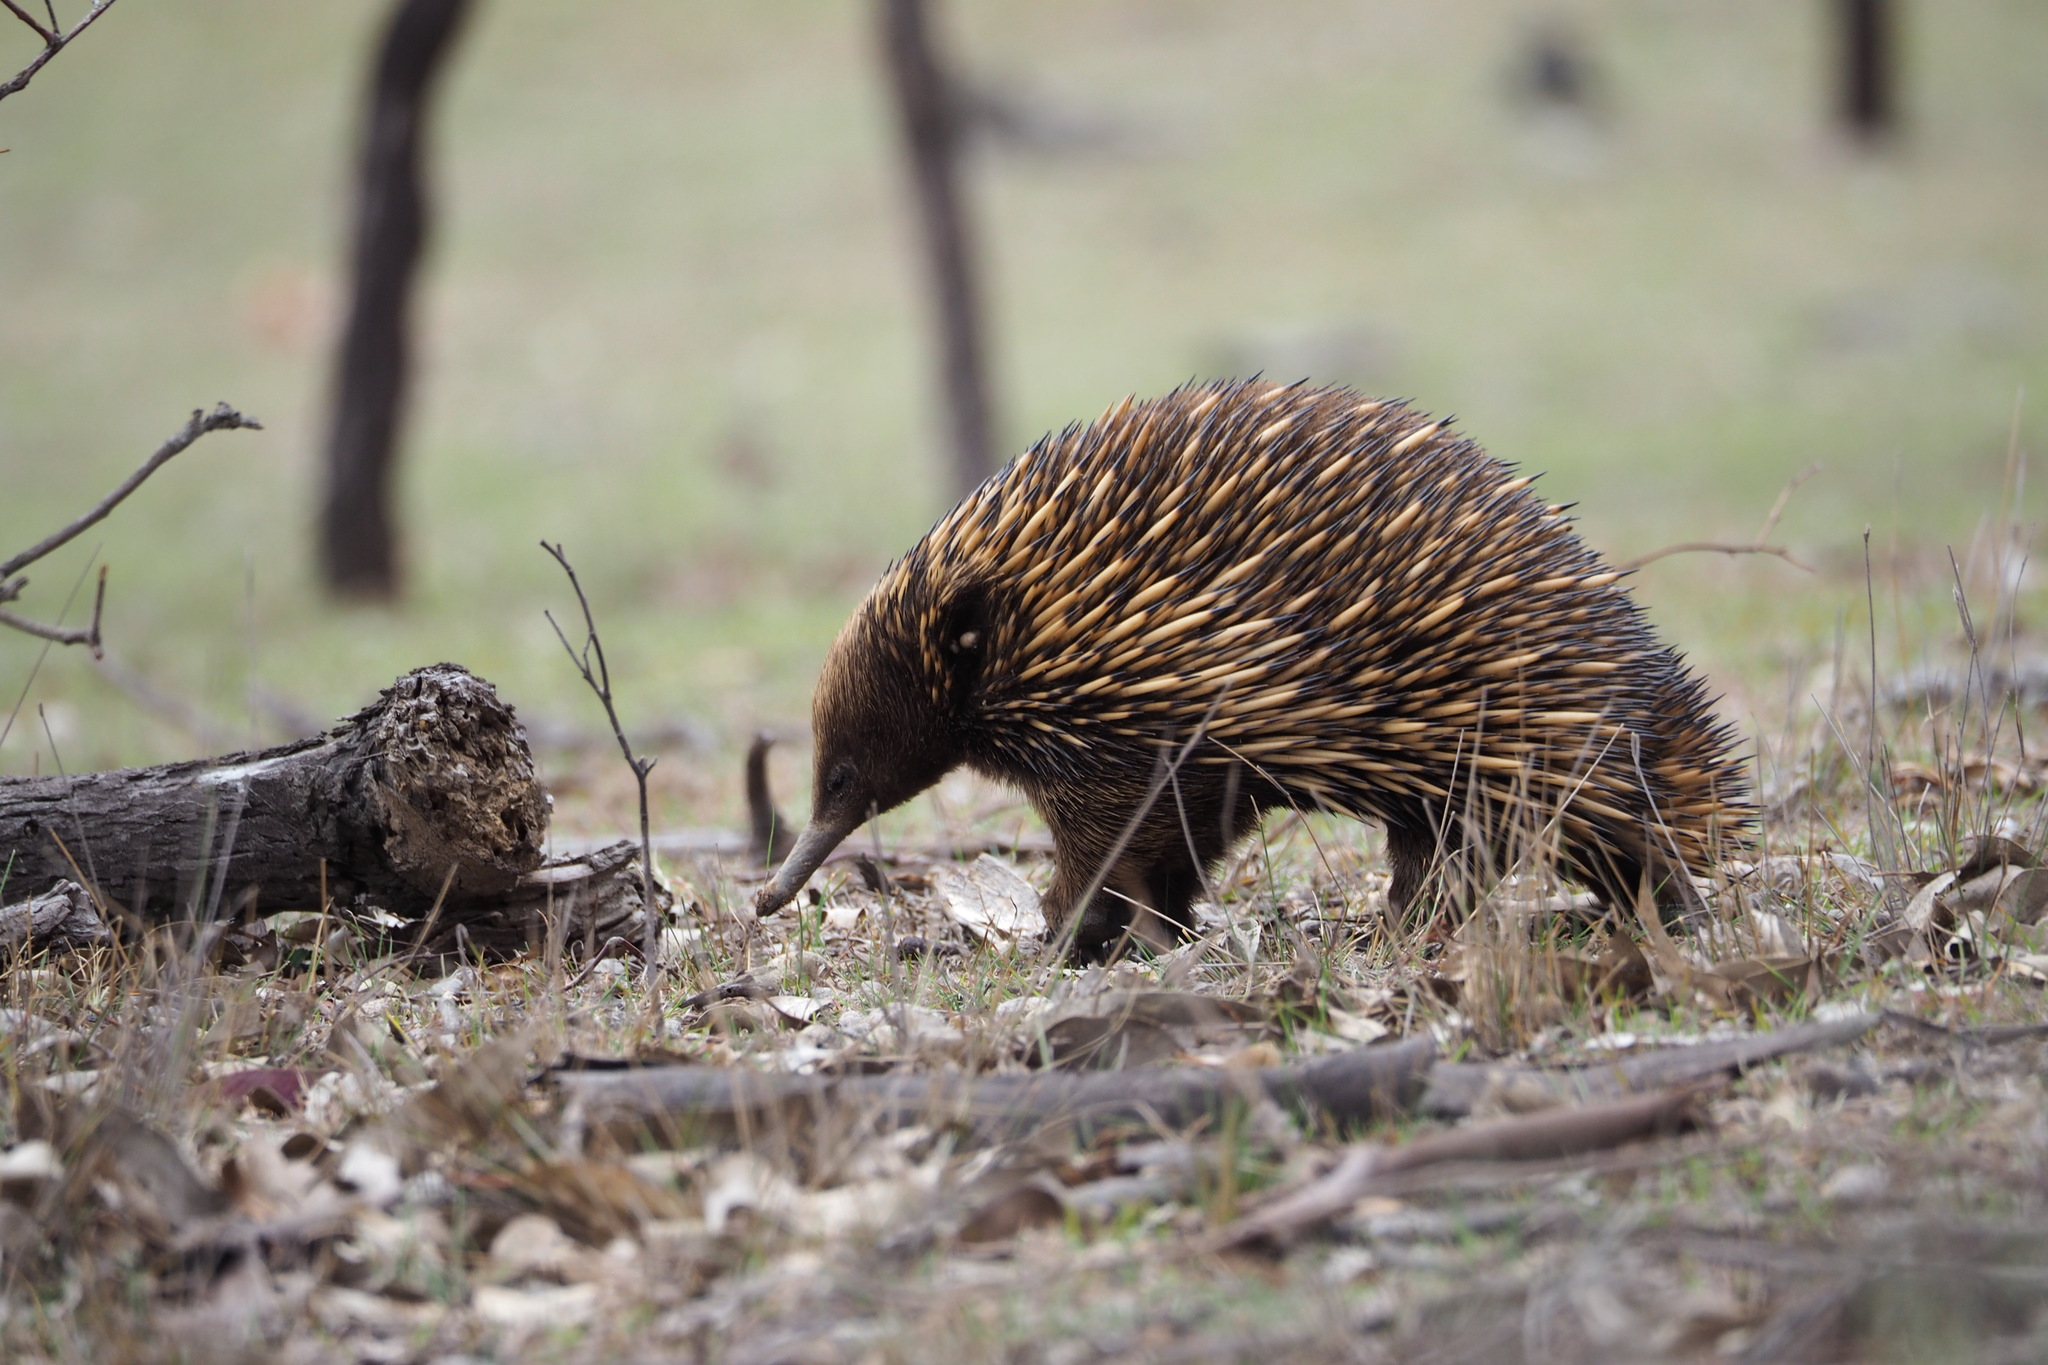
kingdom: Animalia
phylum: Chordata
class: Mammalia
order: Monotremata
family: Tachyglossidae
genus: Tachyglossus
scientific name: Tachyglossus aculeatus
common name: Short-beaked echidna
